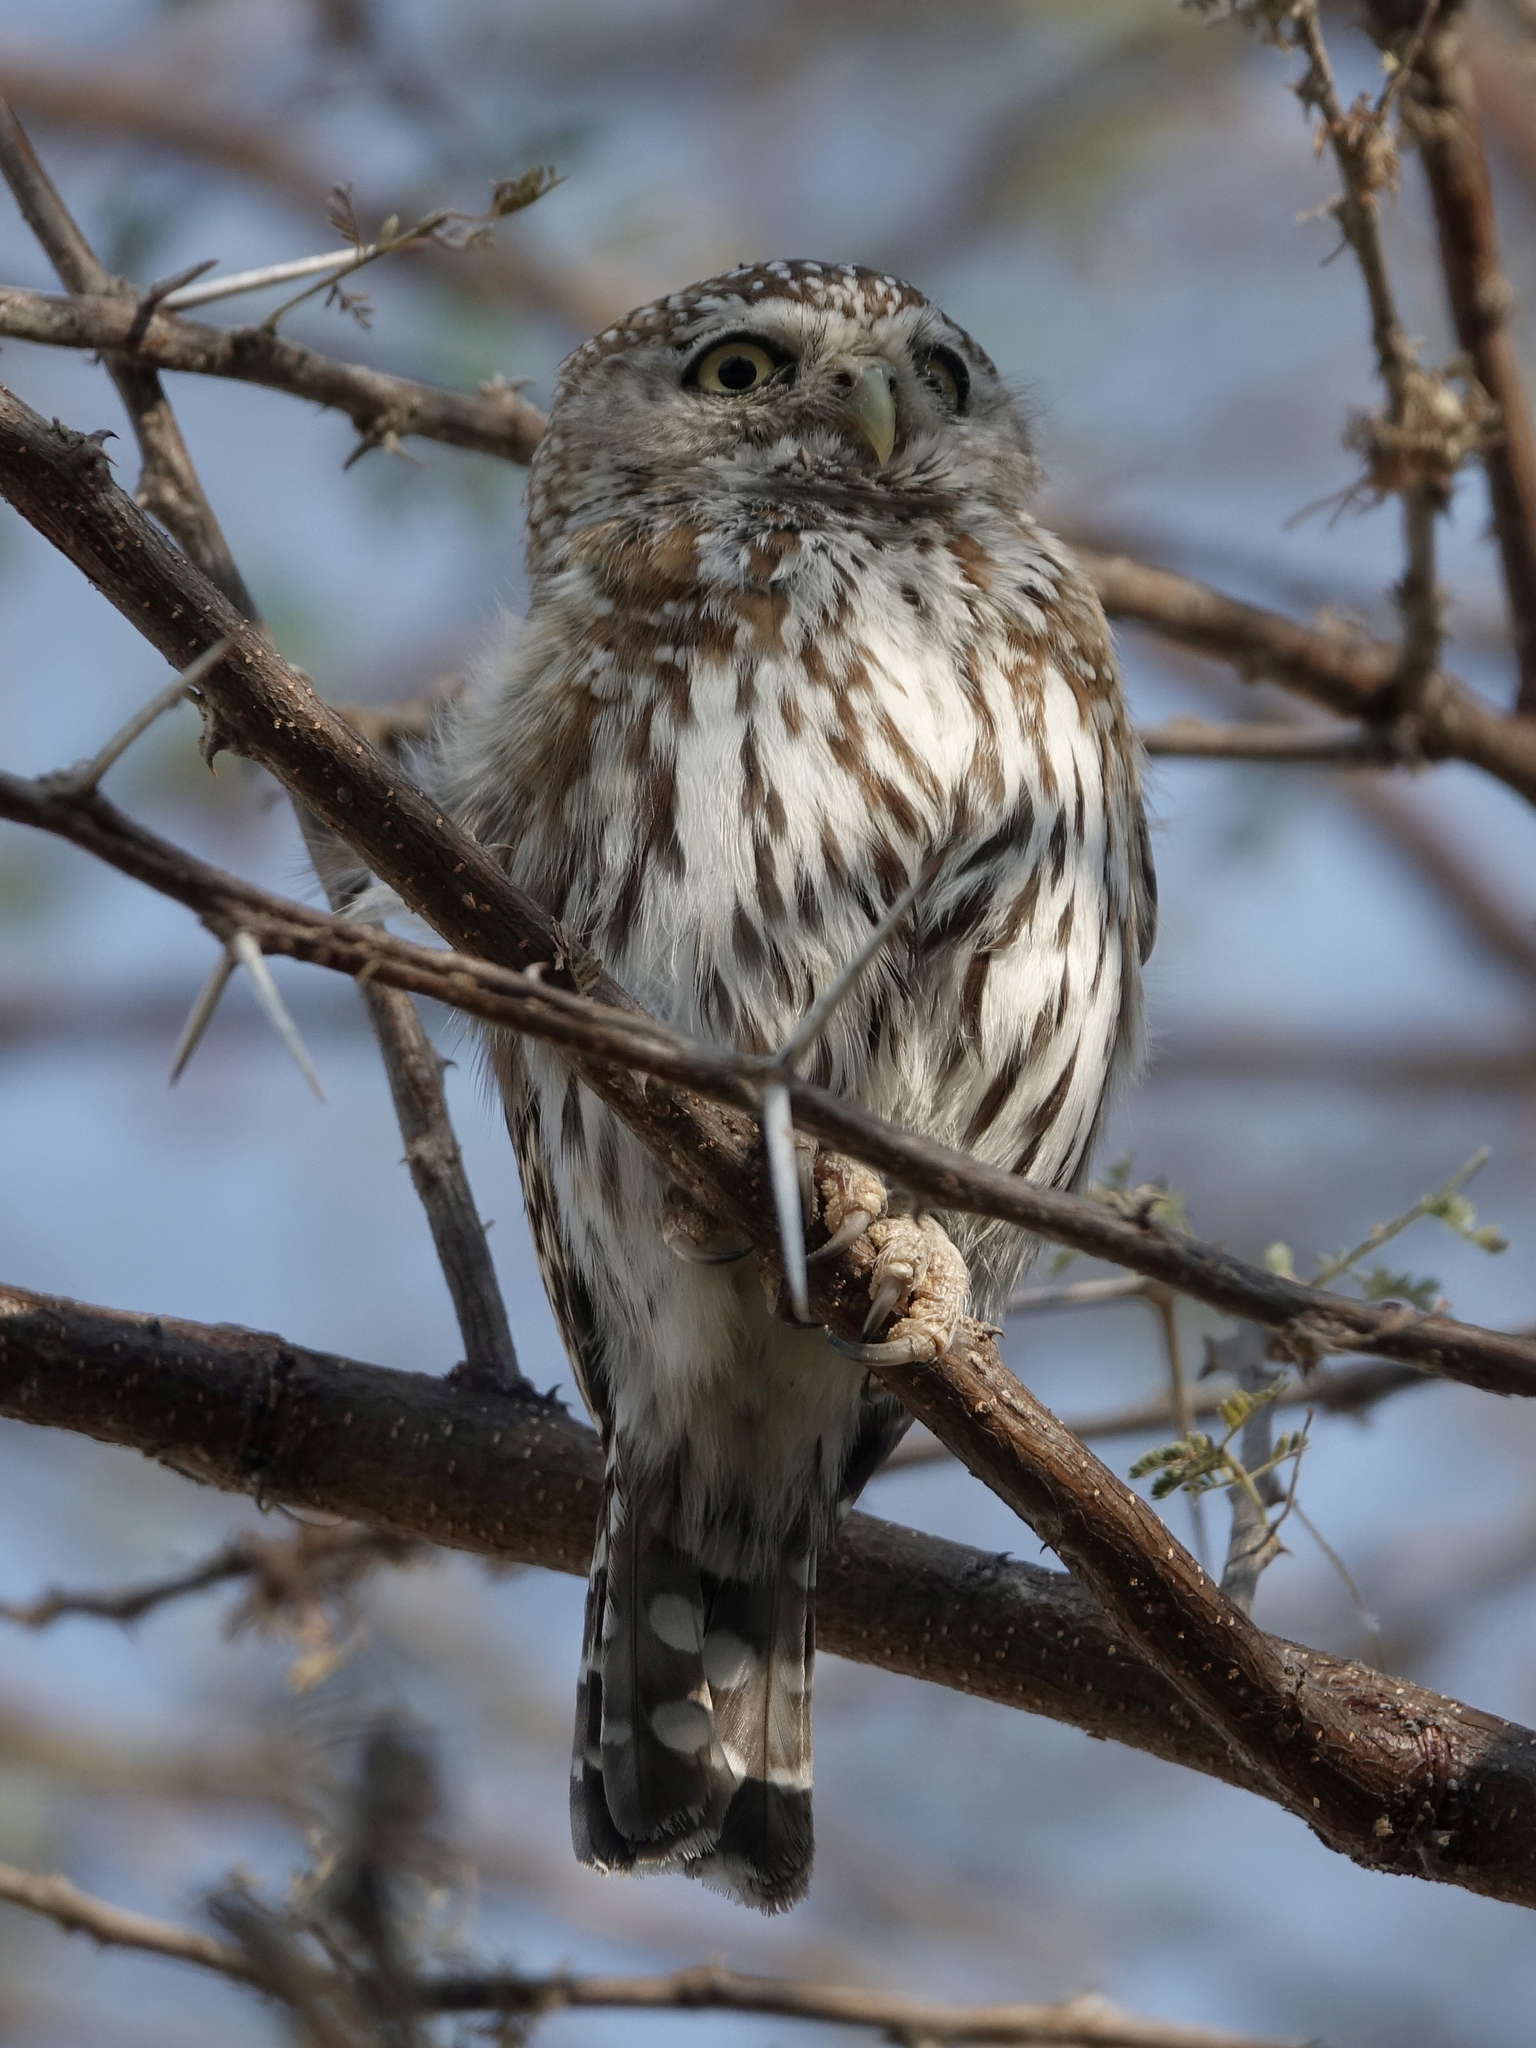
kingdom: Animalia
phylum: Chordata
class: Aves
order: Strigiformes
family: Strigidae
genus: Glaucidium
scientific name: Glaucidium perlatum
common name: Pearl-spotted owlet
